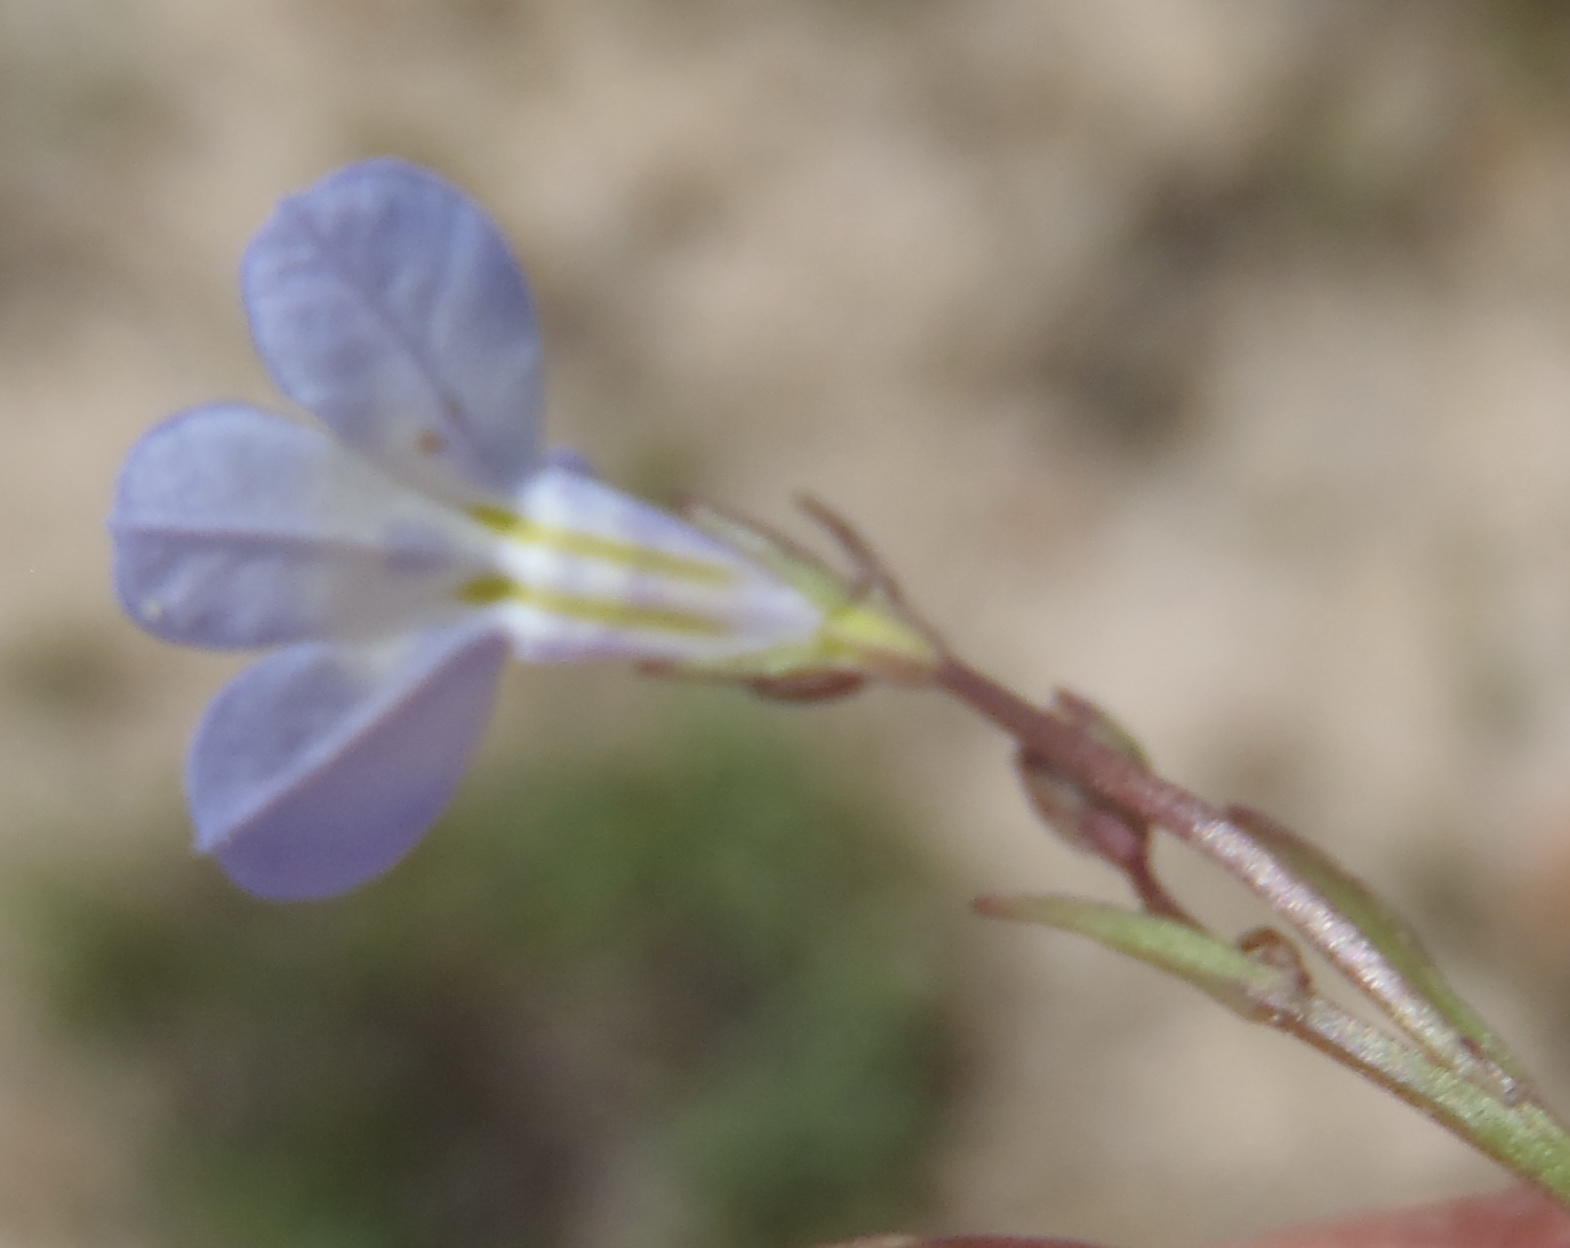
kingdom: Plantae
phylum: Tracheophyta
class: Magnoliopsida
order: Asterales
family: Campanulaceae
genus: Lobelia
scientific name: Lobelia flaccida
